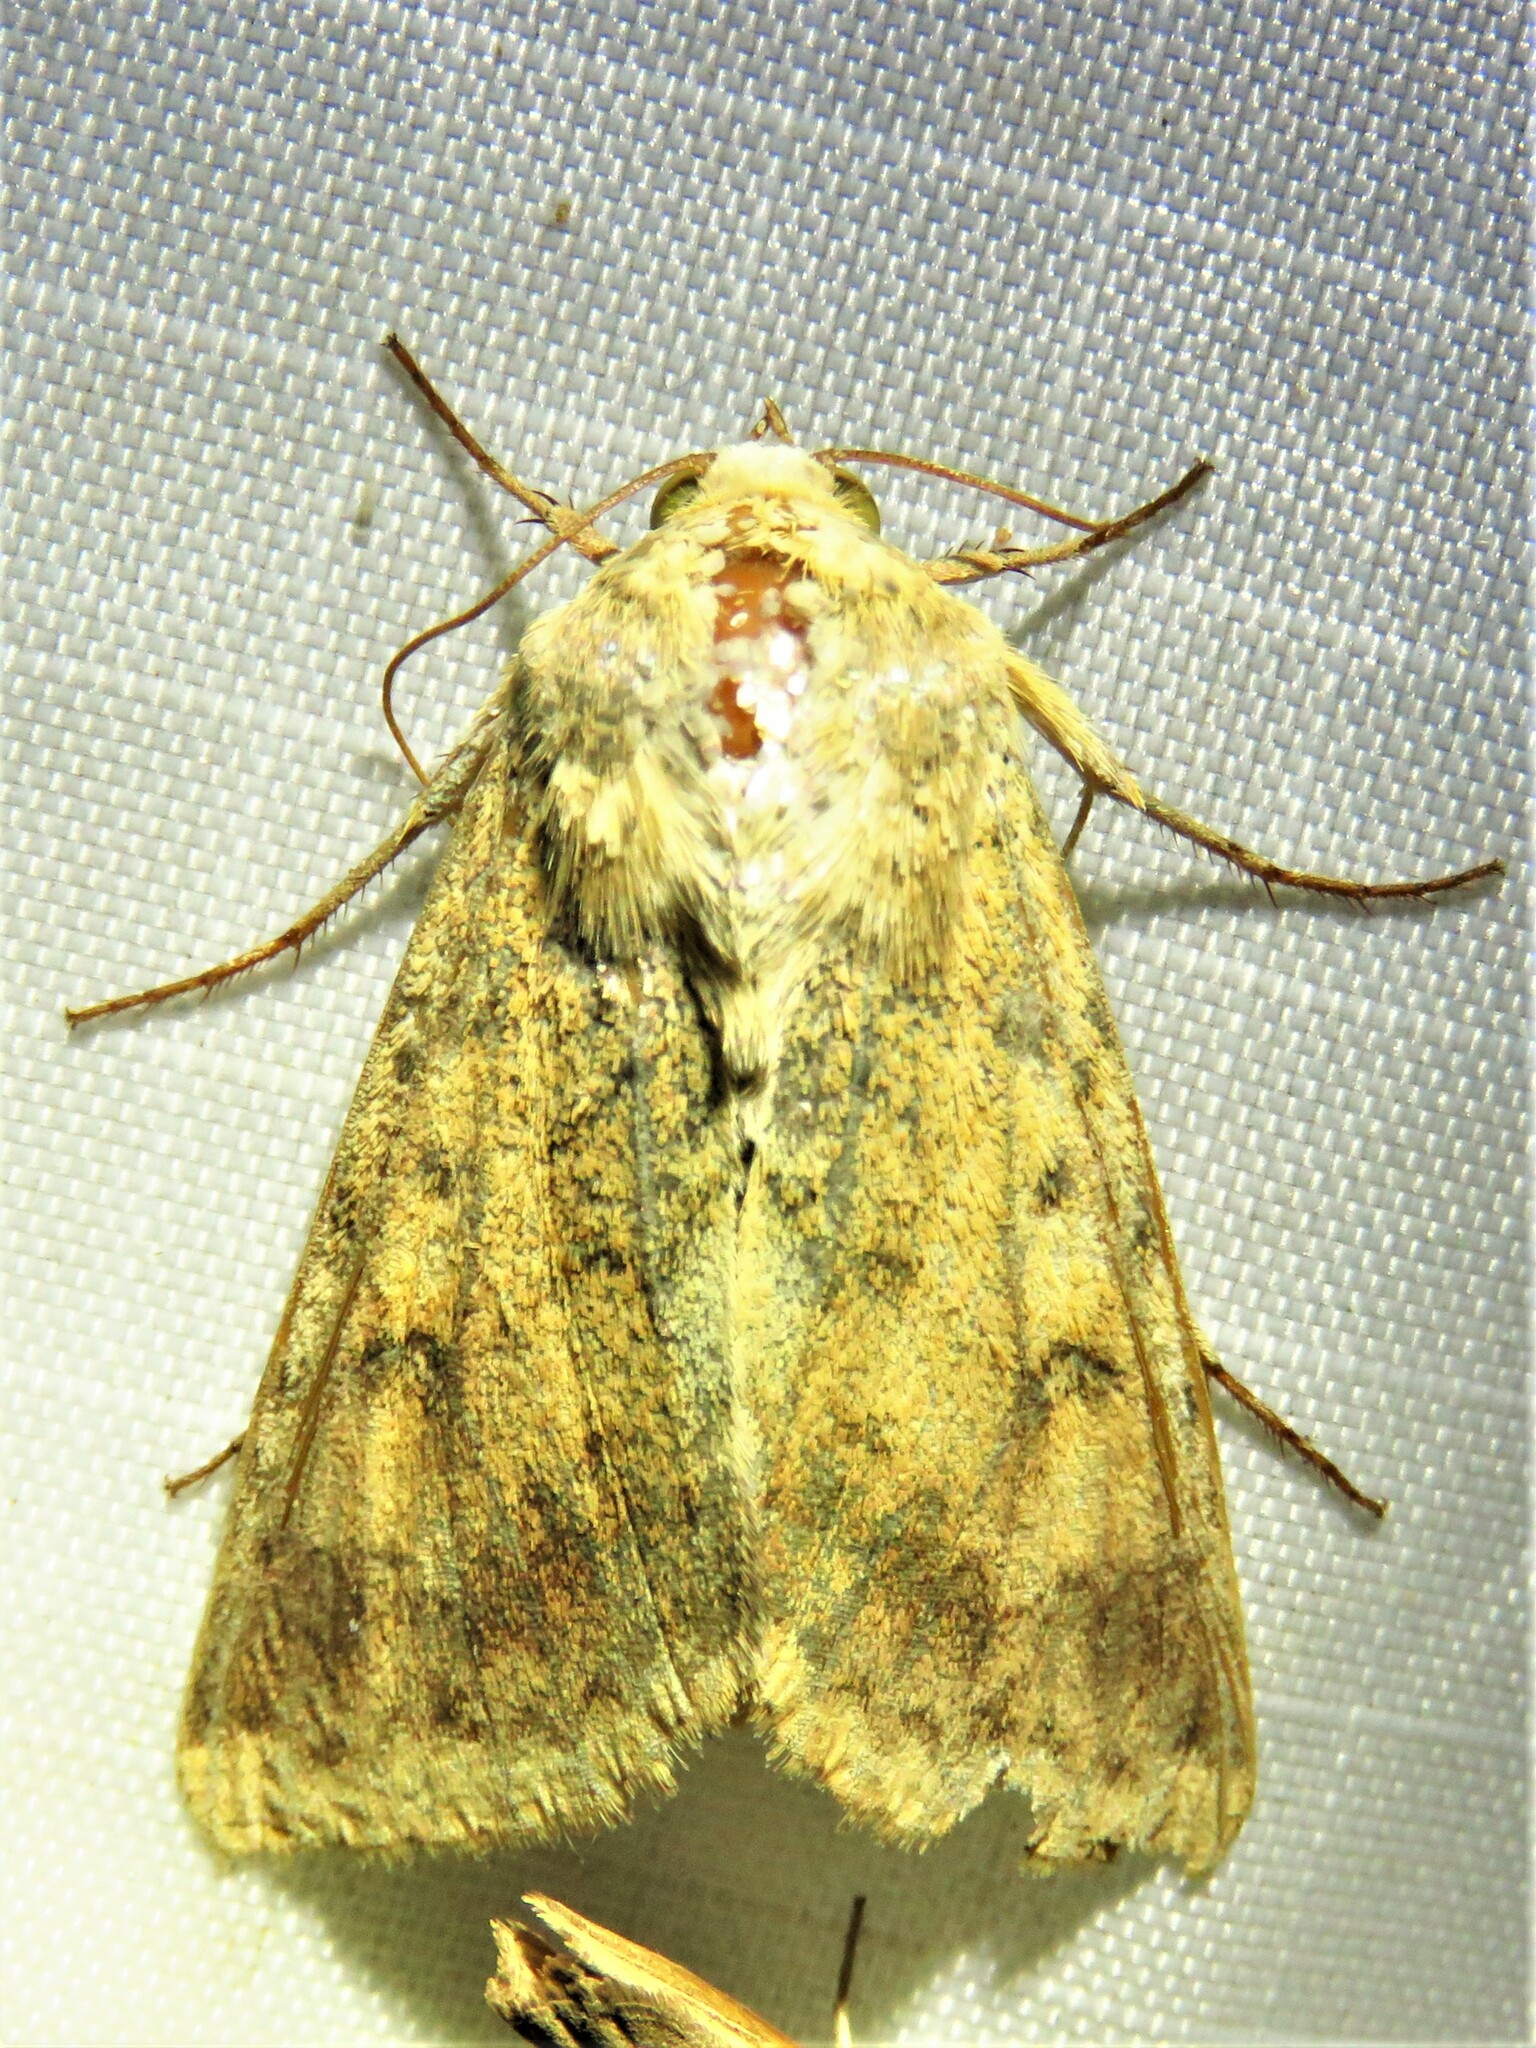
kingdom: Animalia
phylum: Arthropoda
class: Insecta
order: Lepidoptera
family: Noctuidae
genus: Helicoverpa
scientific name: Helicoverpa zea
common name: Bollworm
